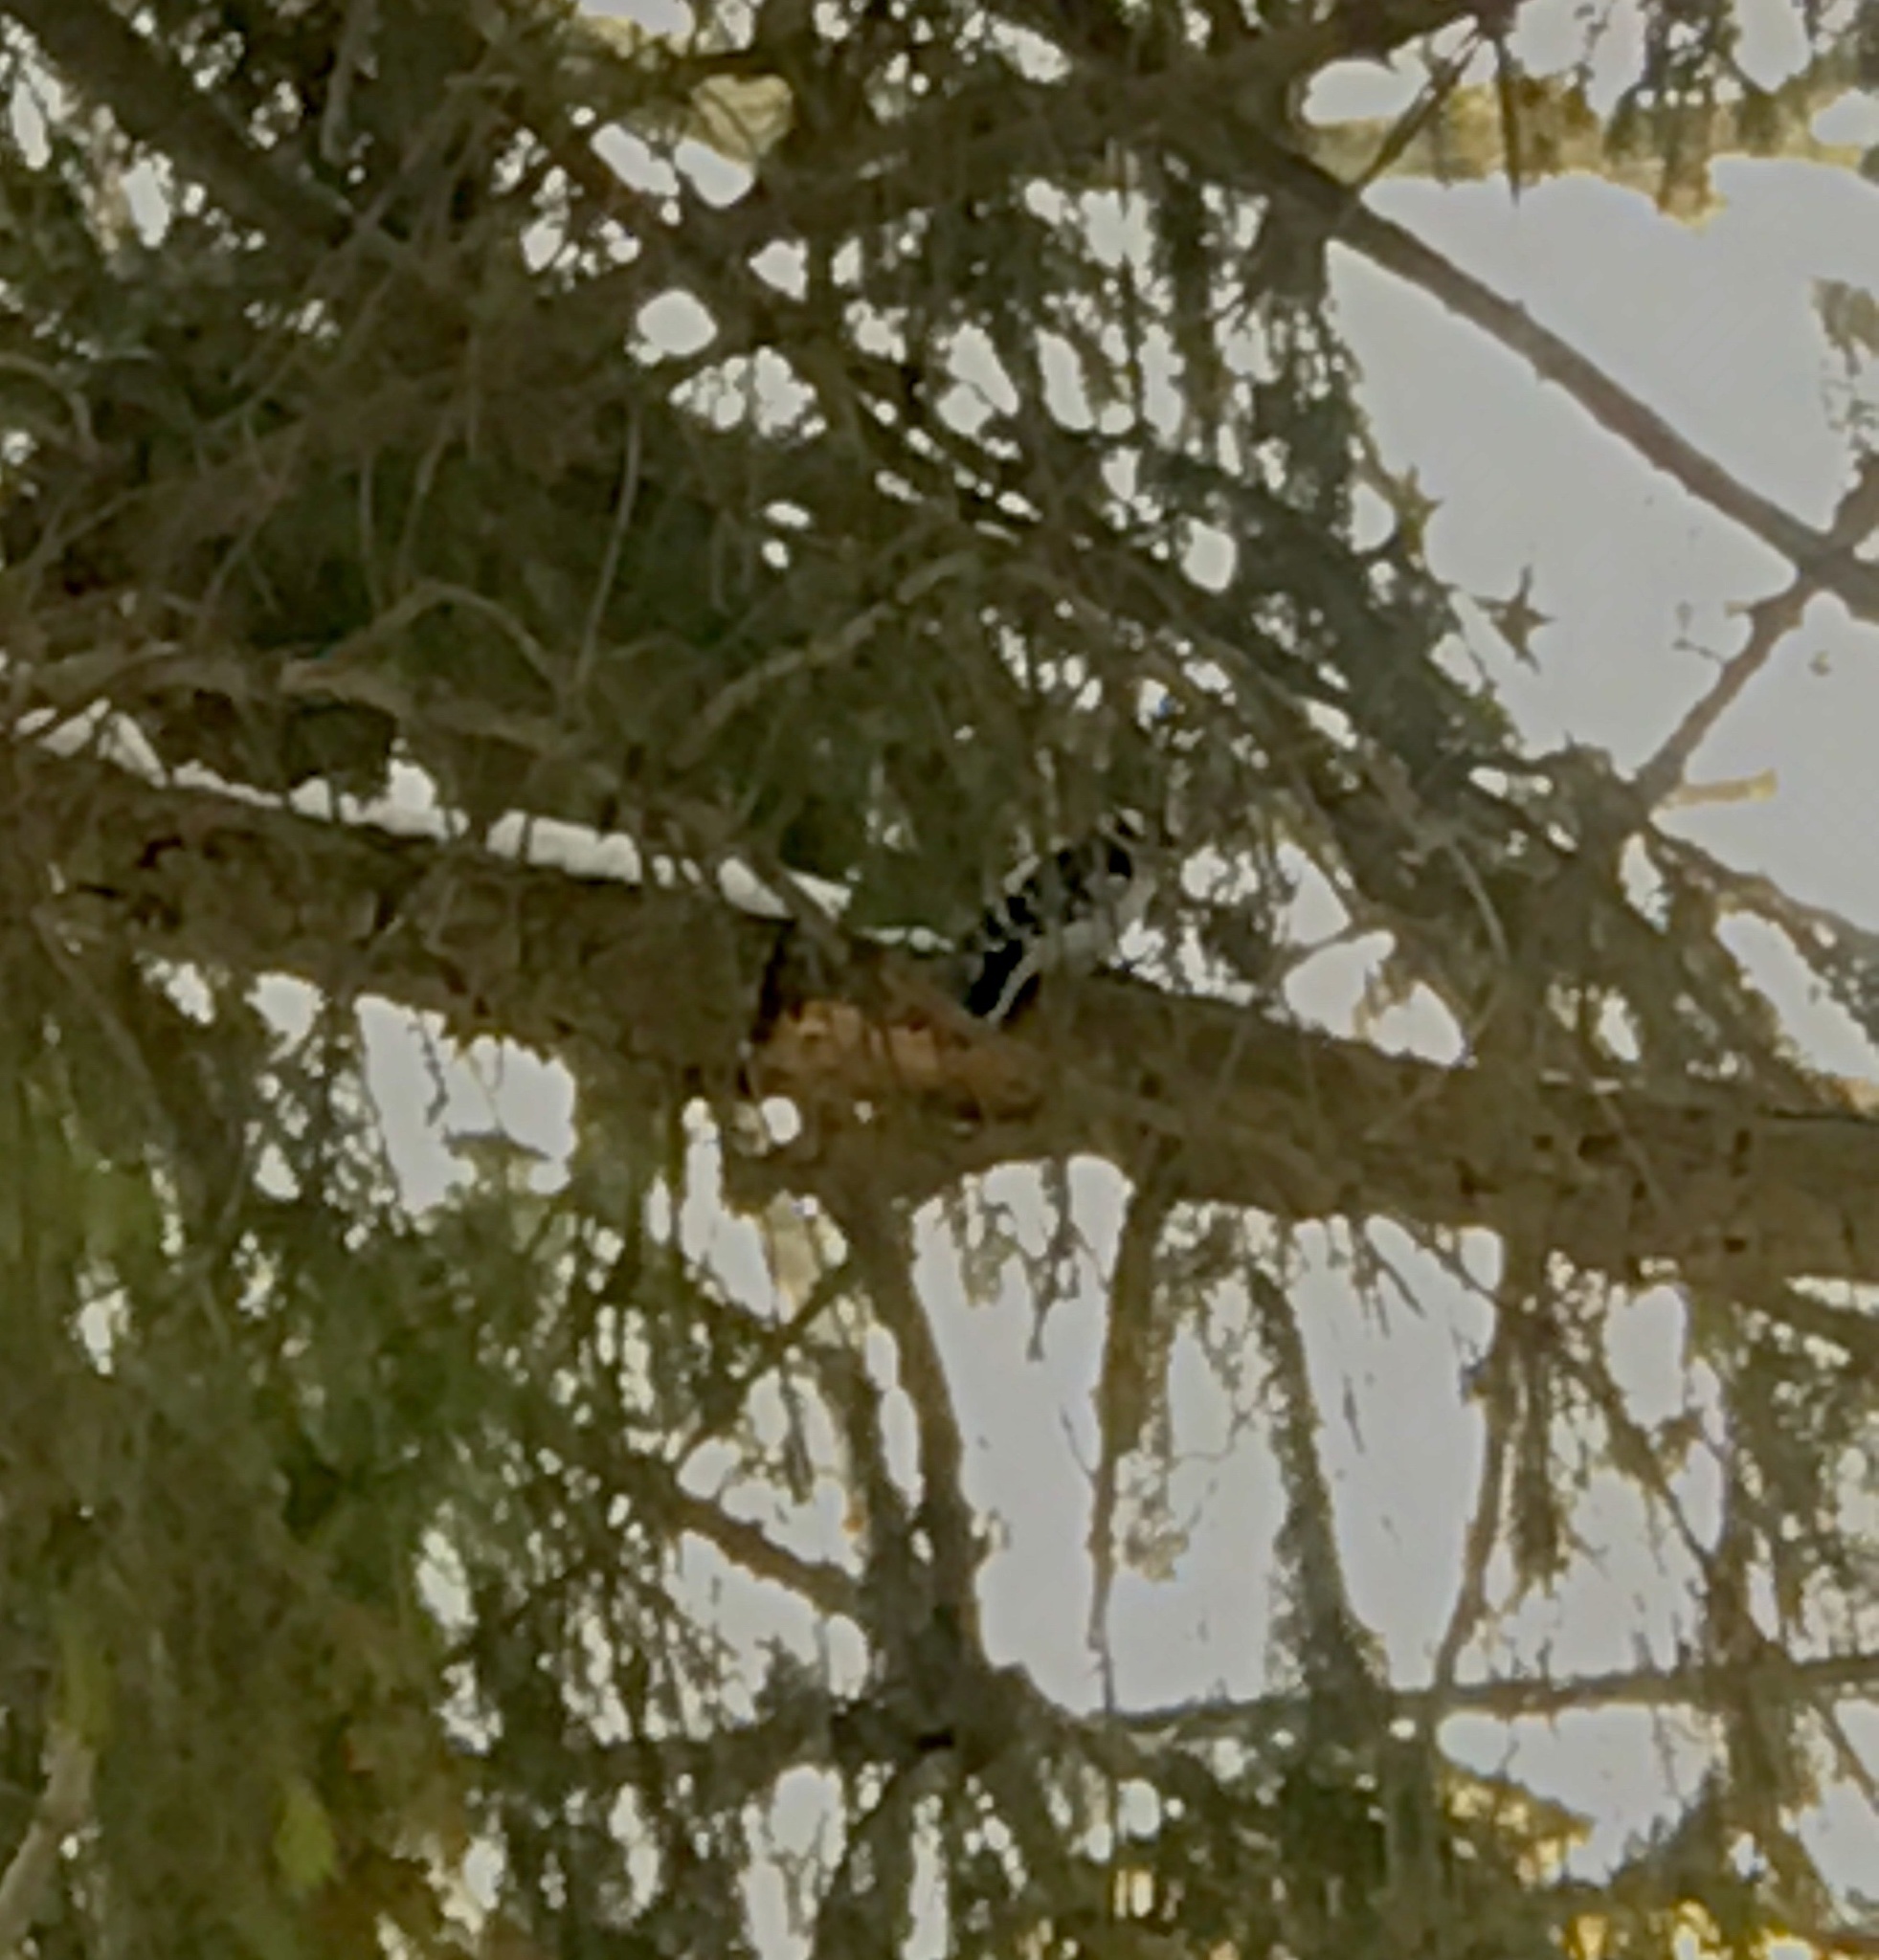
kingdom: Animalia
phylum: Chordata
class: Aves
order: Piciformes
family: Picidae
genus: Dryobates
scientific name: Dryobates pubescens
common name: Downy woodpecker
